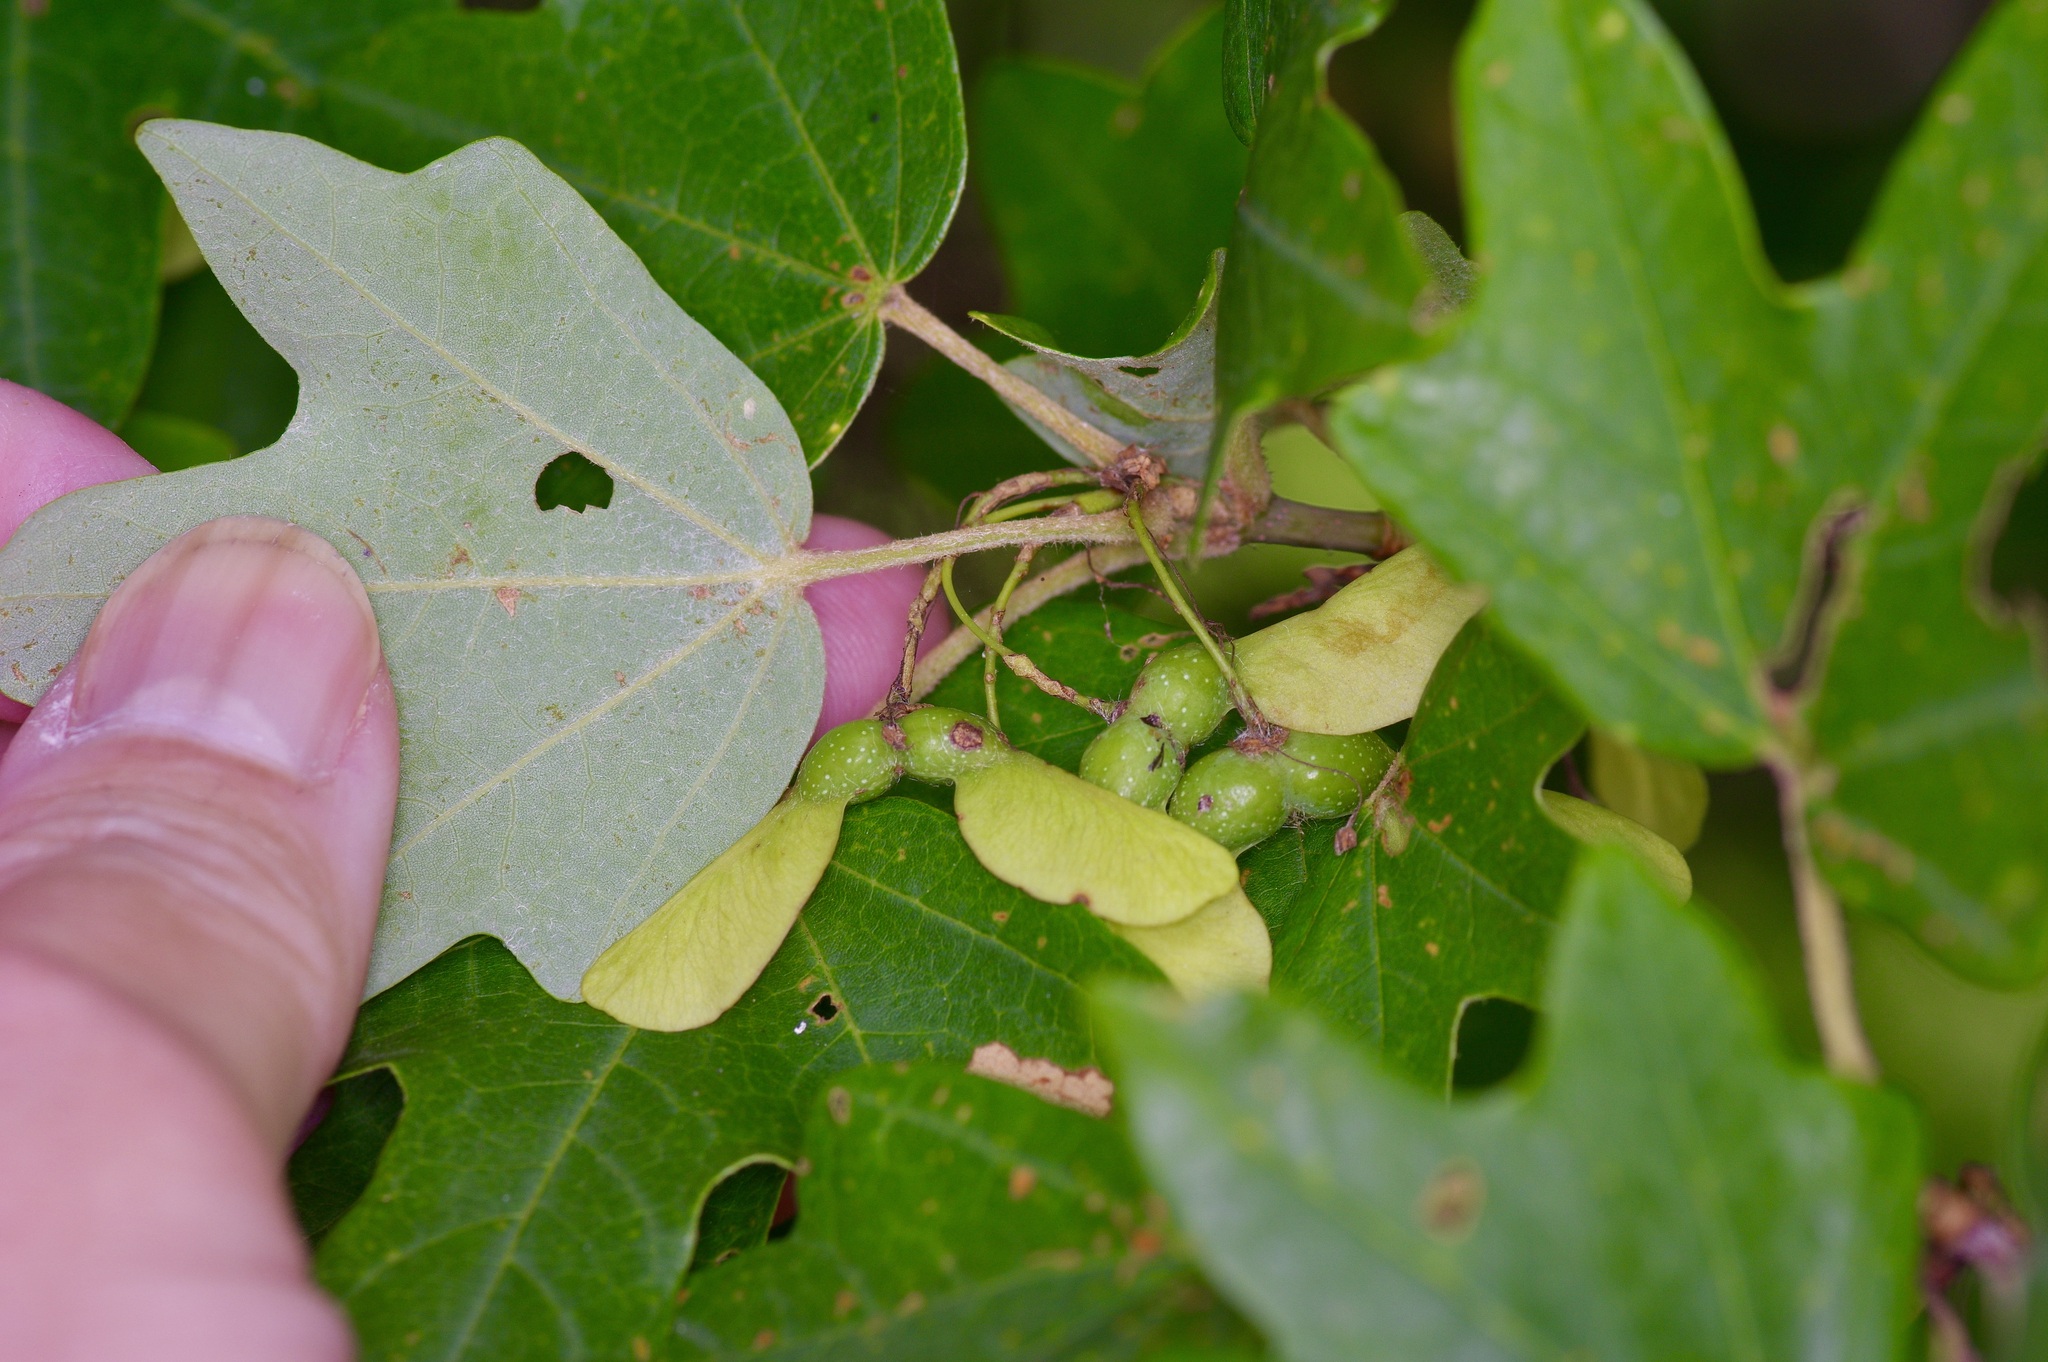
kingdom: Plantae
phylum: Tracheophyta
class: Magnoliopsida
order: Sapindales
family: Sapindaceae
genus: Acer
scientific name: Acer grandidentatum
